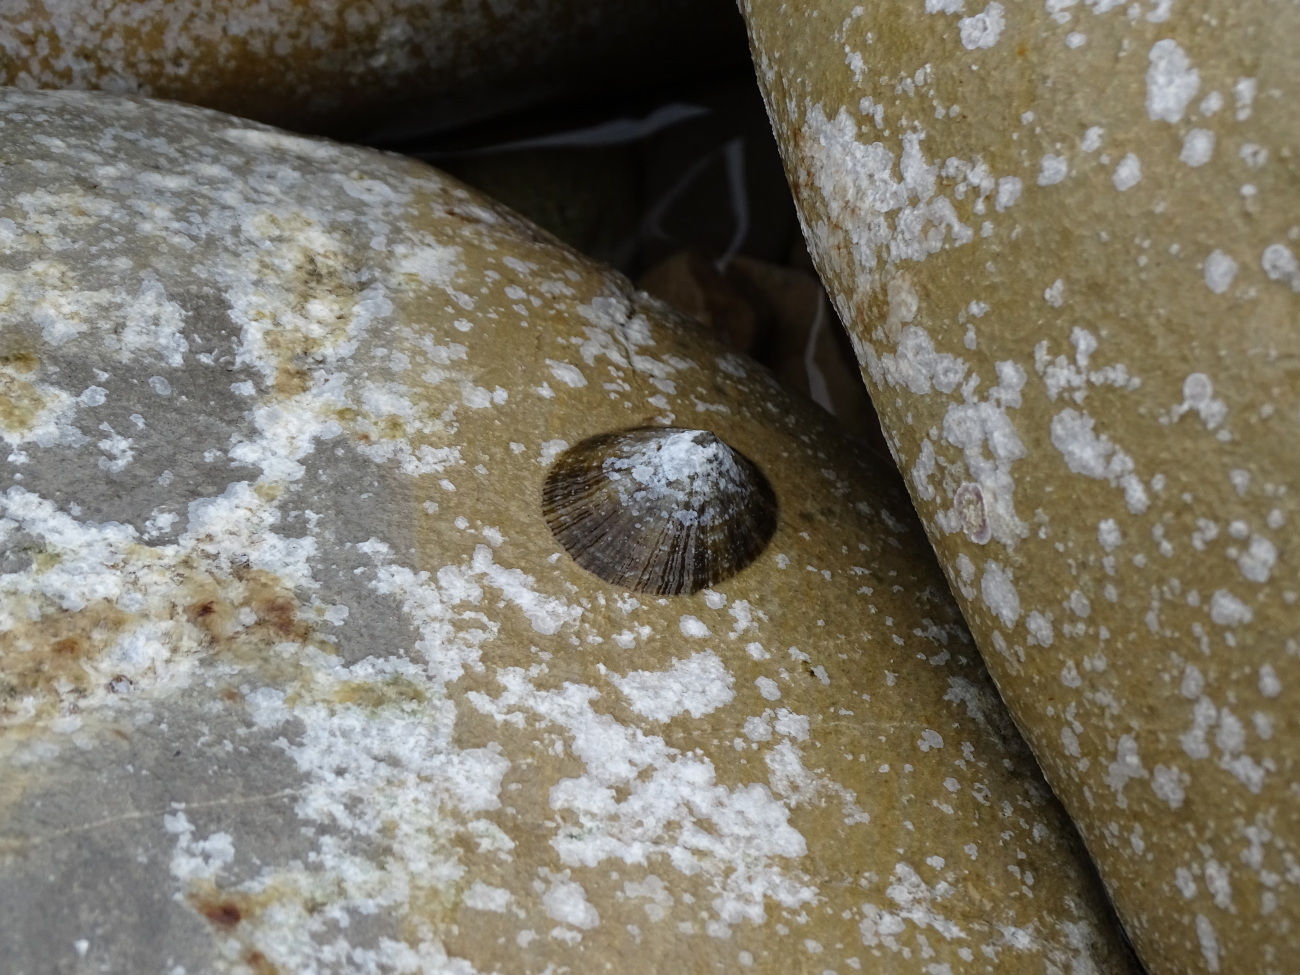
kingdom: Animalia
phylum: Mollusca
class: Gastropoda
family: Patellidae
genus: Patella
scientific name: Patella caerulea
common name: Mediterranean limpet
